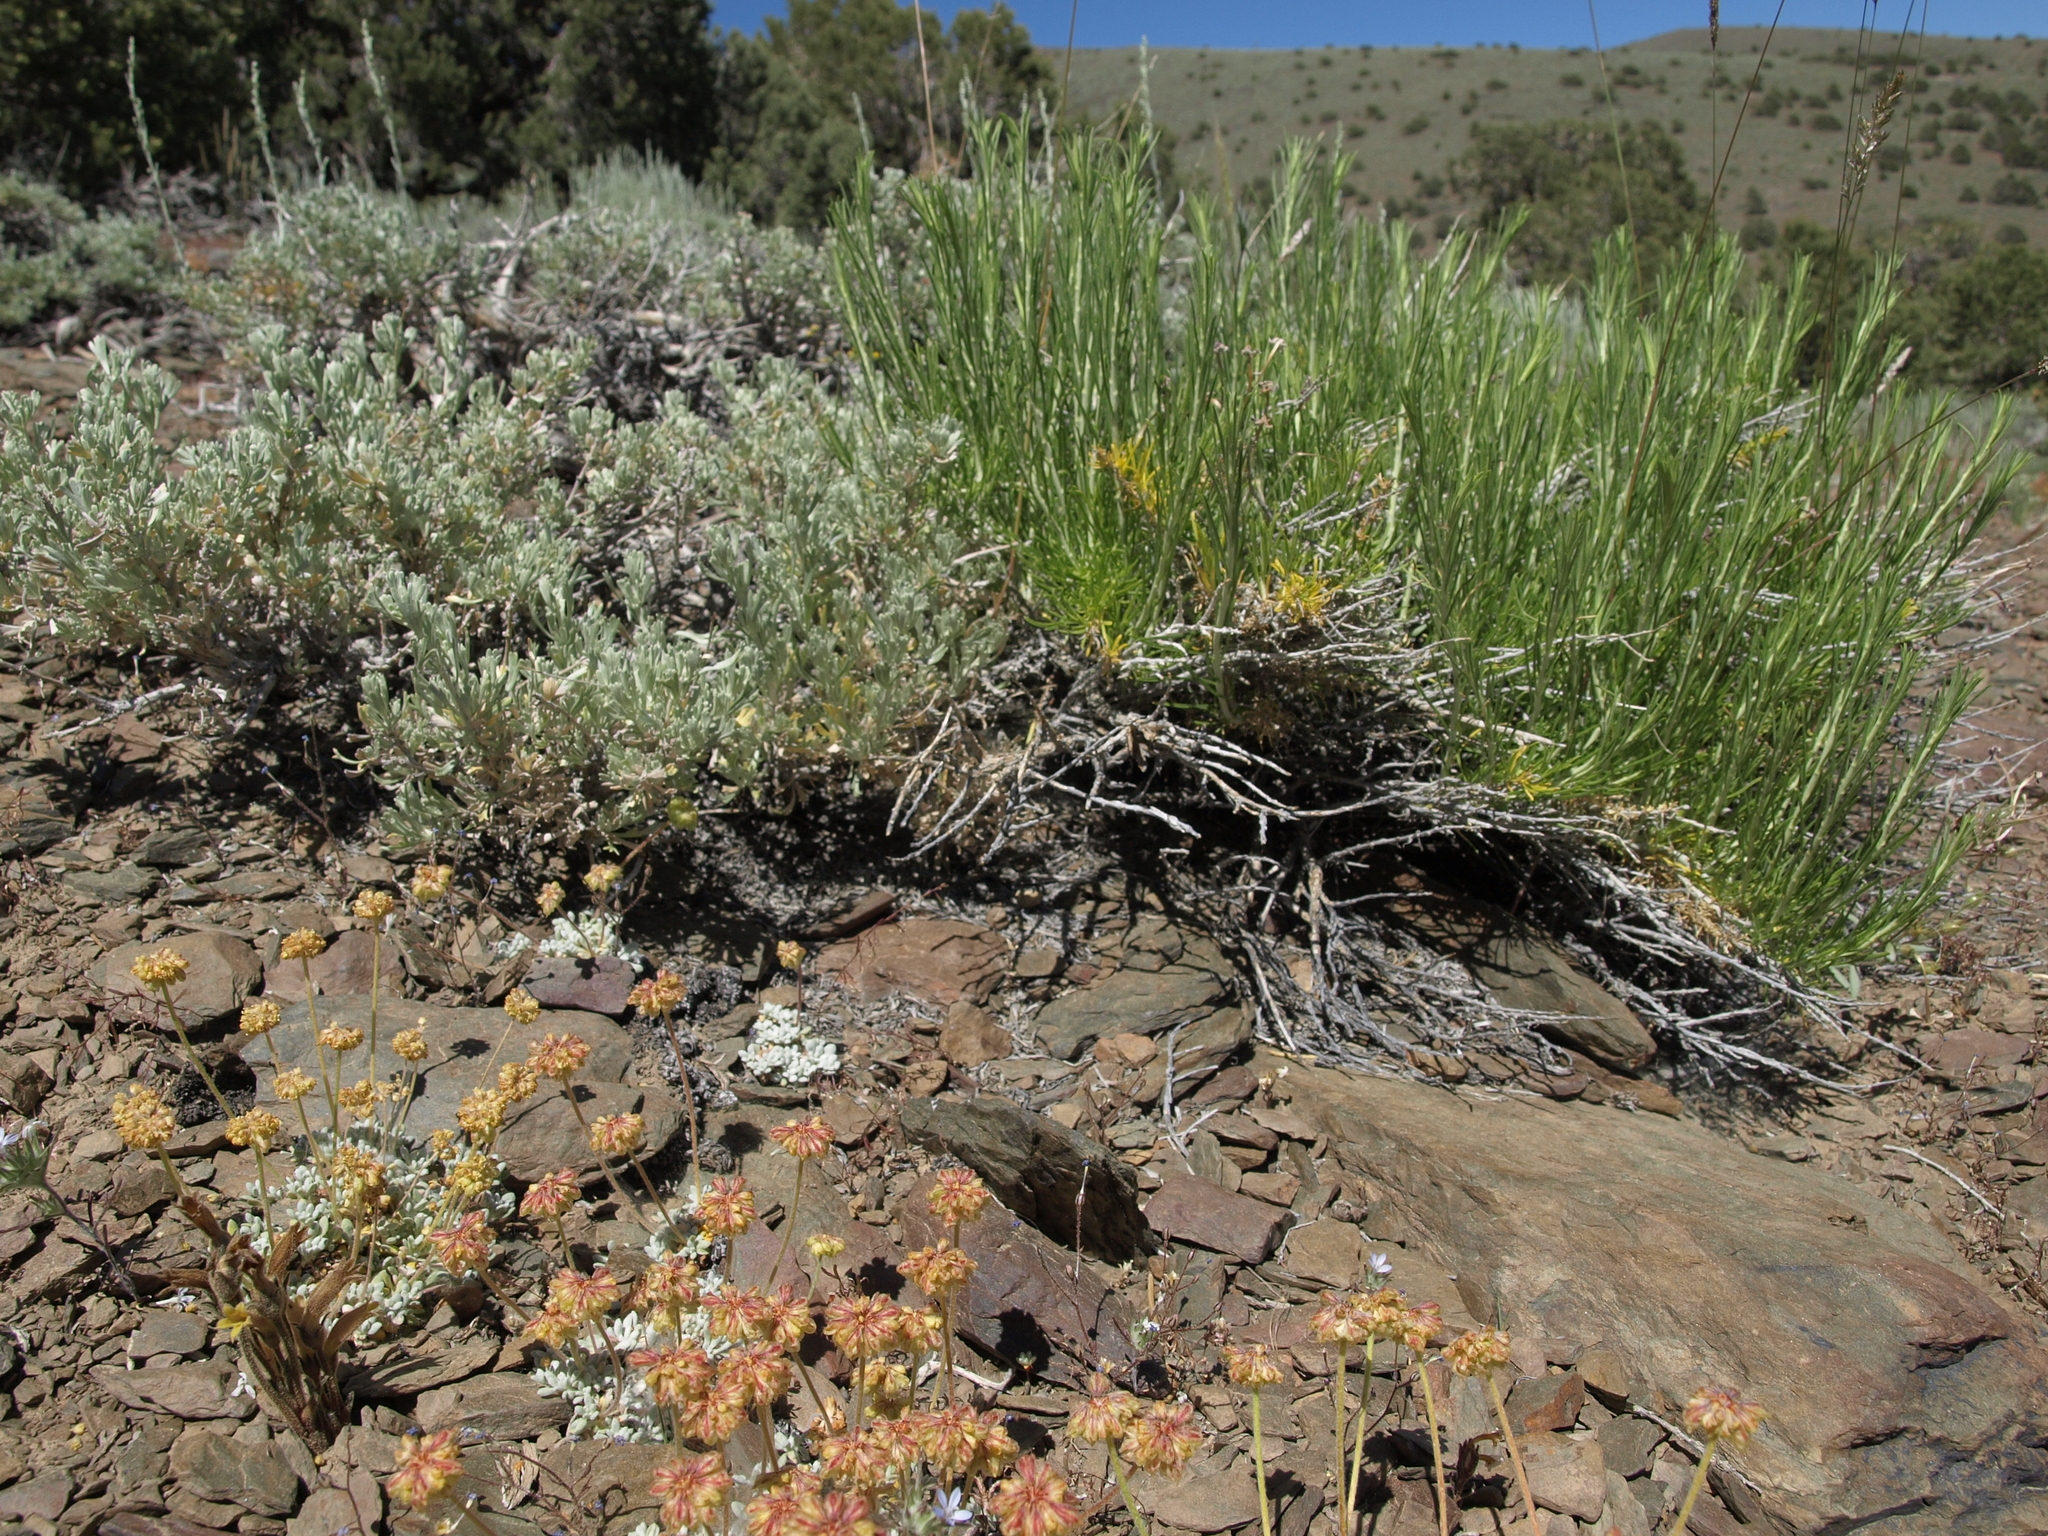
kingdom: Plantae
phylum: Tracheophyta
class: Magnoliopsida
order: Caryophyllales
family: Polygonaceae
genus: Eriogonum
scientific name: Eriogonum caespitosum
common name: Matted wild buckwheat
